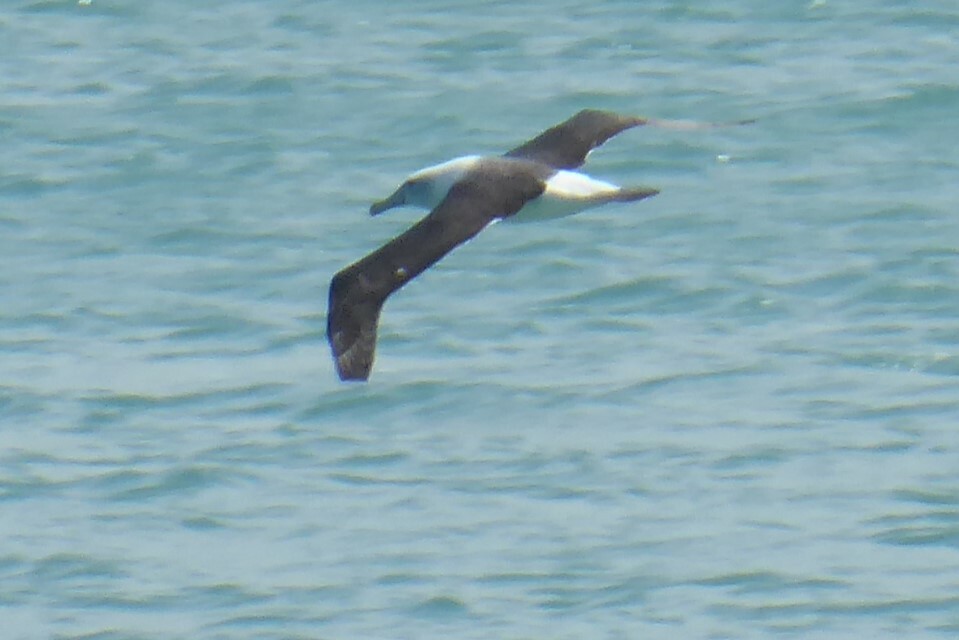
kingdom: Animalia
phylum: Chordata
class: Aves
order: Procellariiformes
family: Diomedeidae
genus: Thalassarche
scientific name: Thalassarche cauta
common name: Shy albatross
